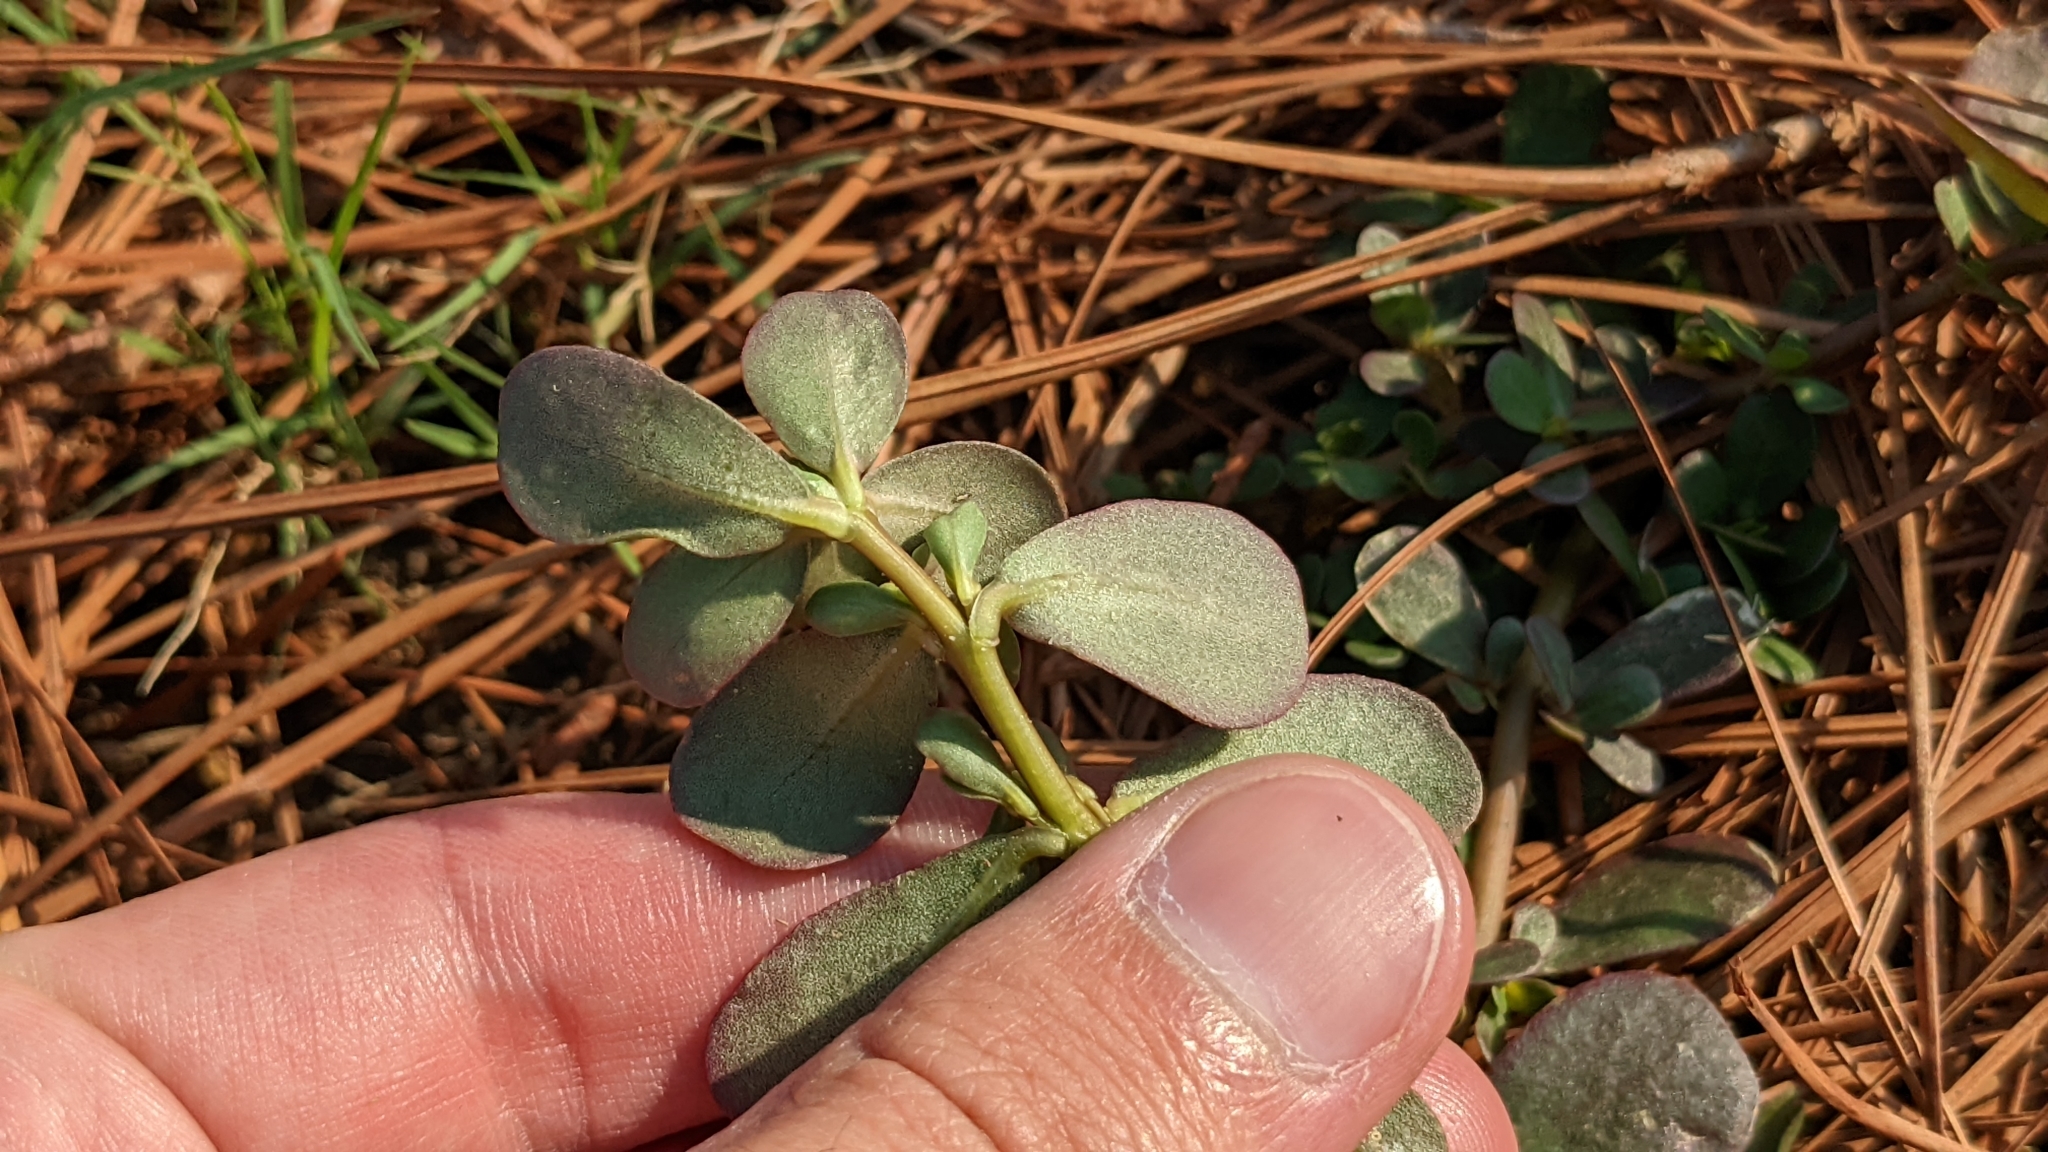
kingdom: Plantae
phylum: Tracheophyta
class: Magnoliopsida
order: Caryophyllales
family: Portulacaceae
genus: Portulaca
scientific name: Portulaca oleracea
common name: Common purslane
